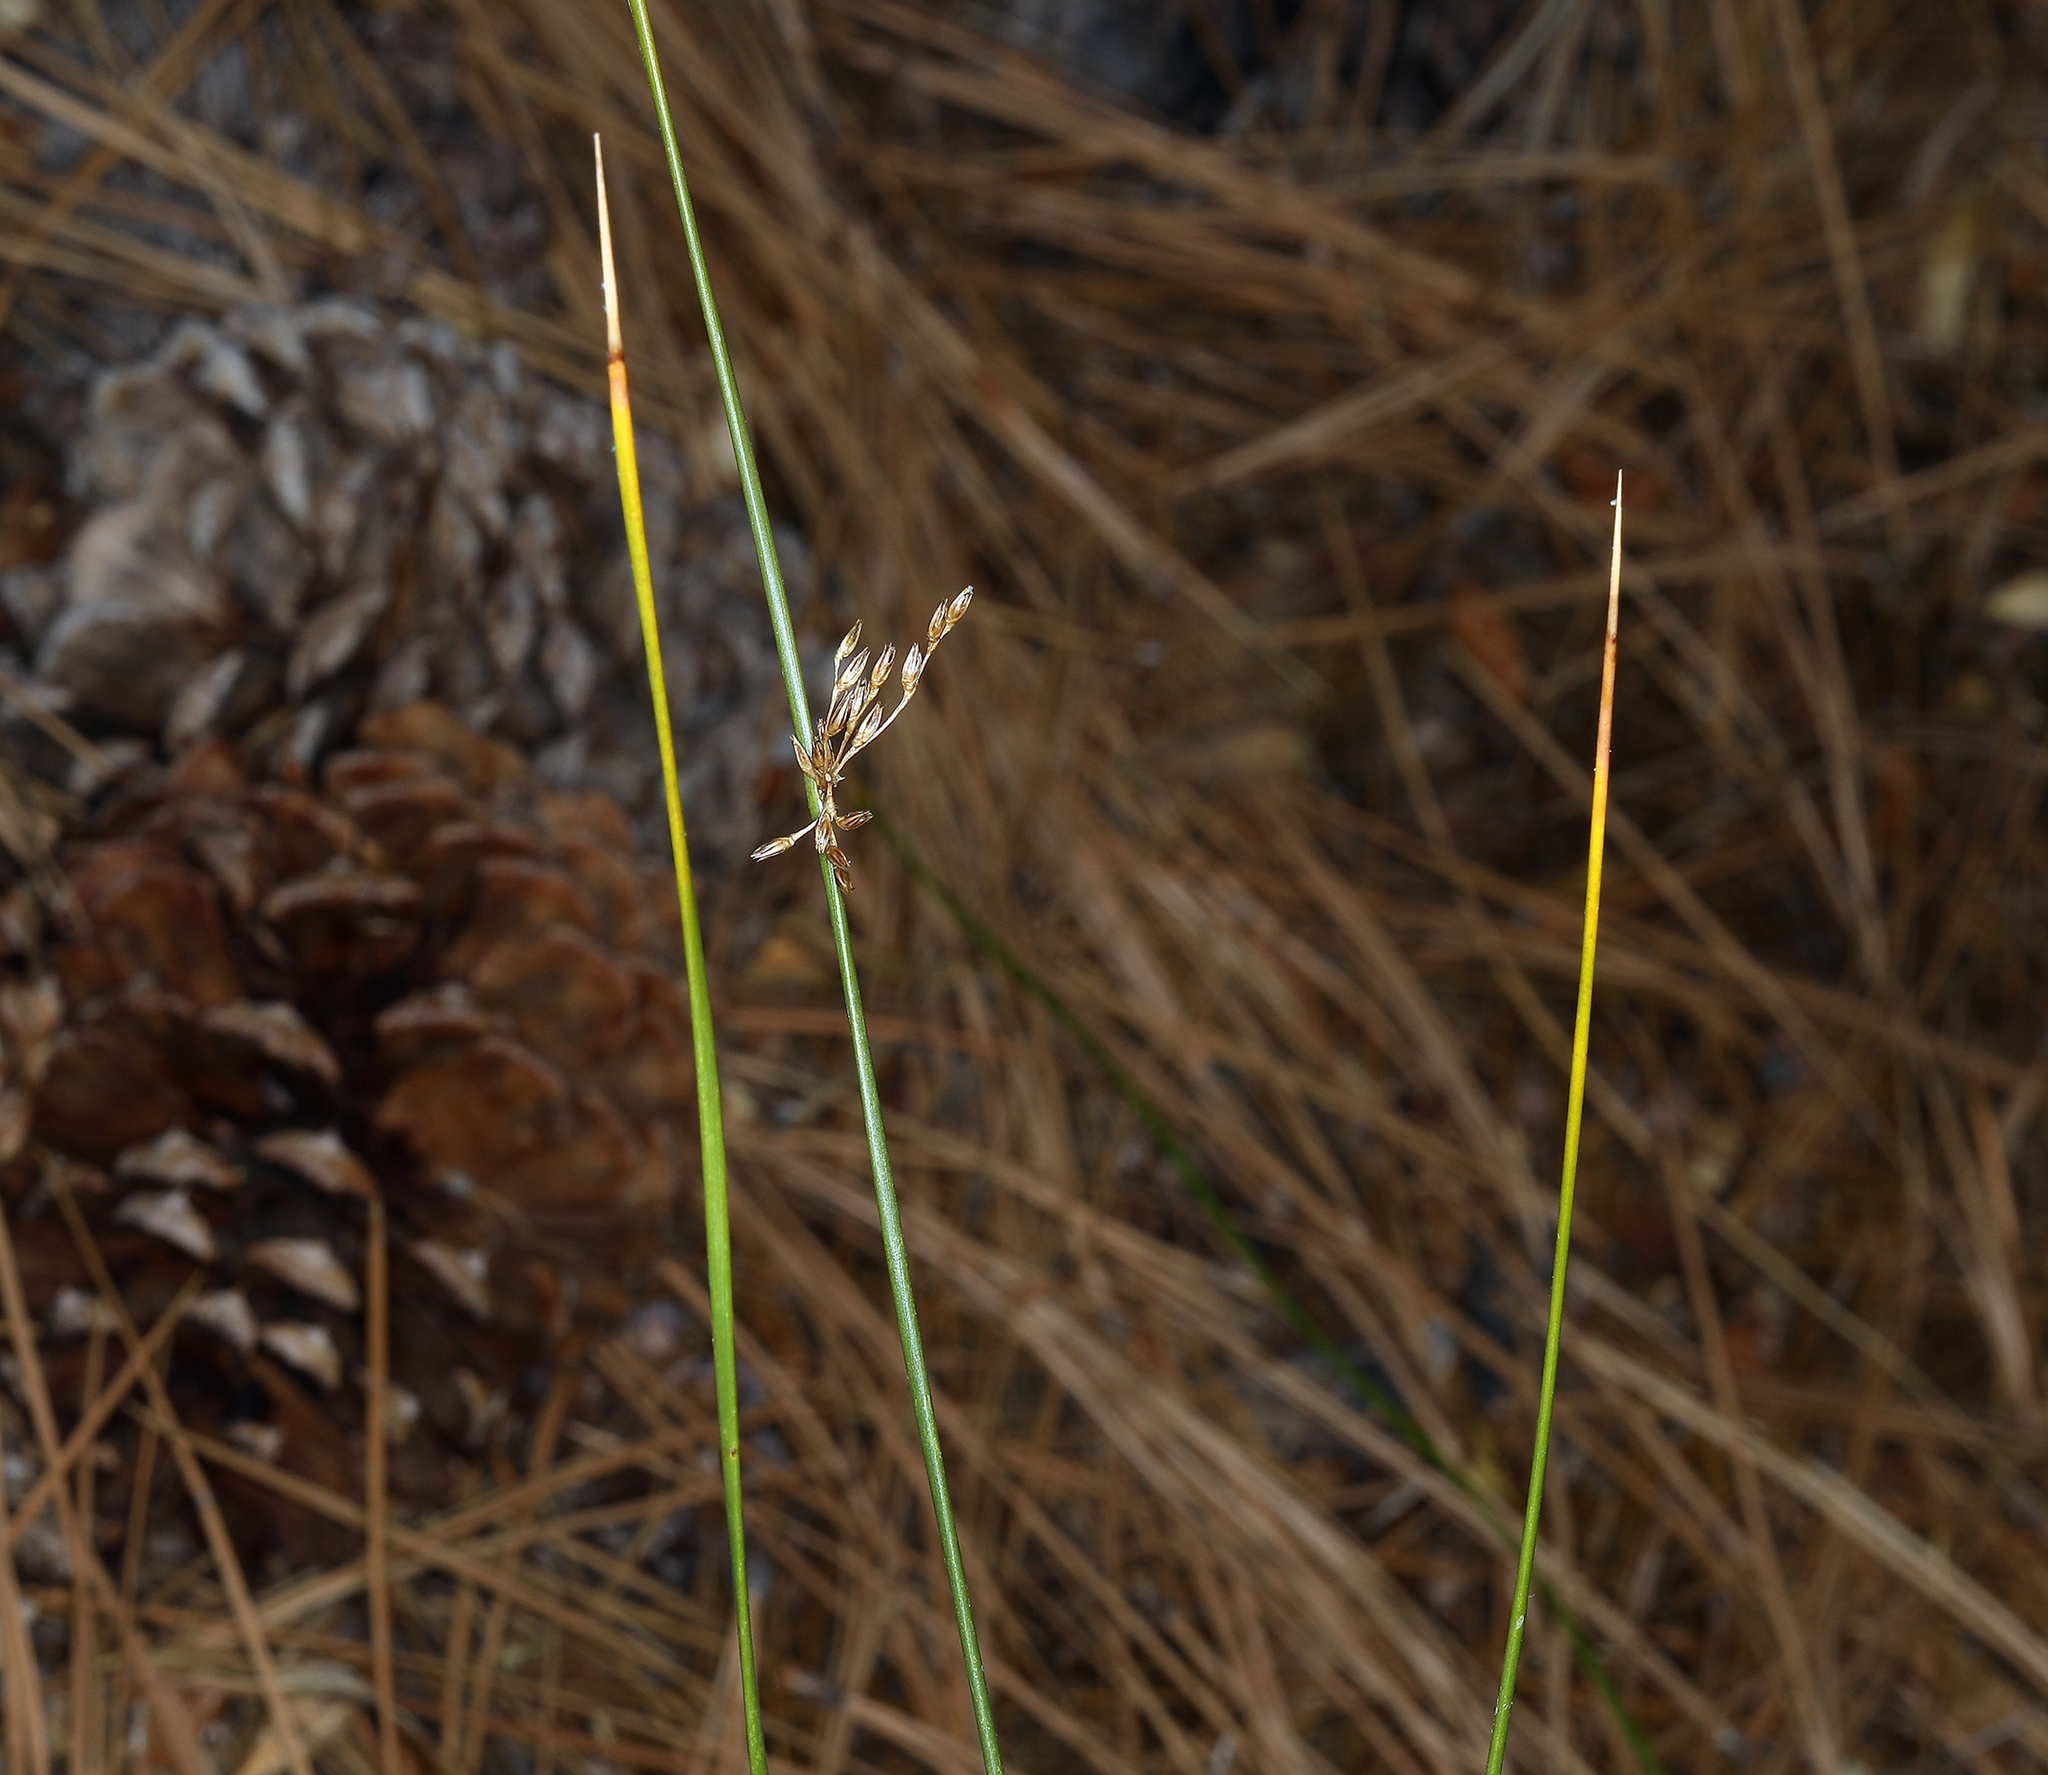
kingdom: Plantae
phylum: Tracheophyta
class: Liliopsida
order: Poales
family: Juncaceae
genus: Juncus
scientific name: Juncus balticus
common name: Baltic rush
